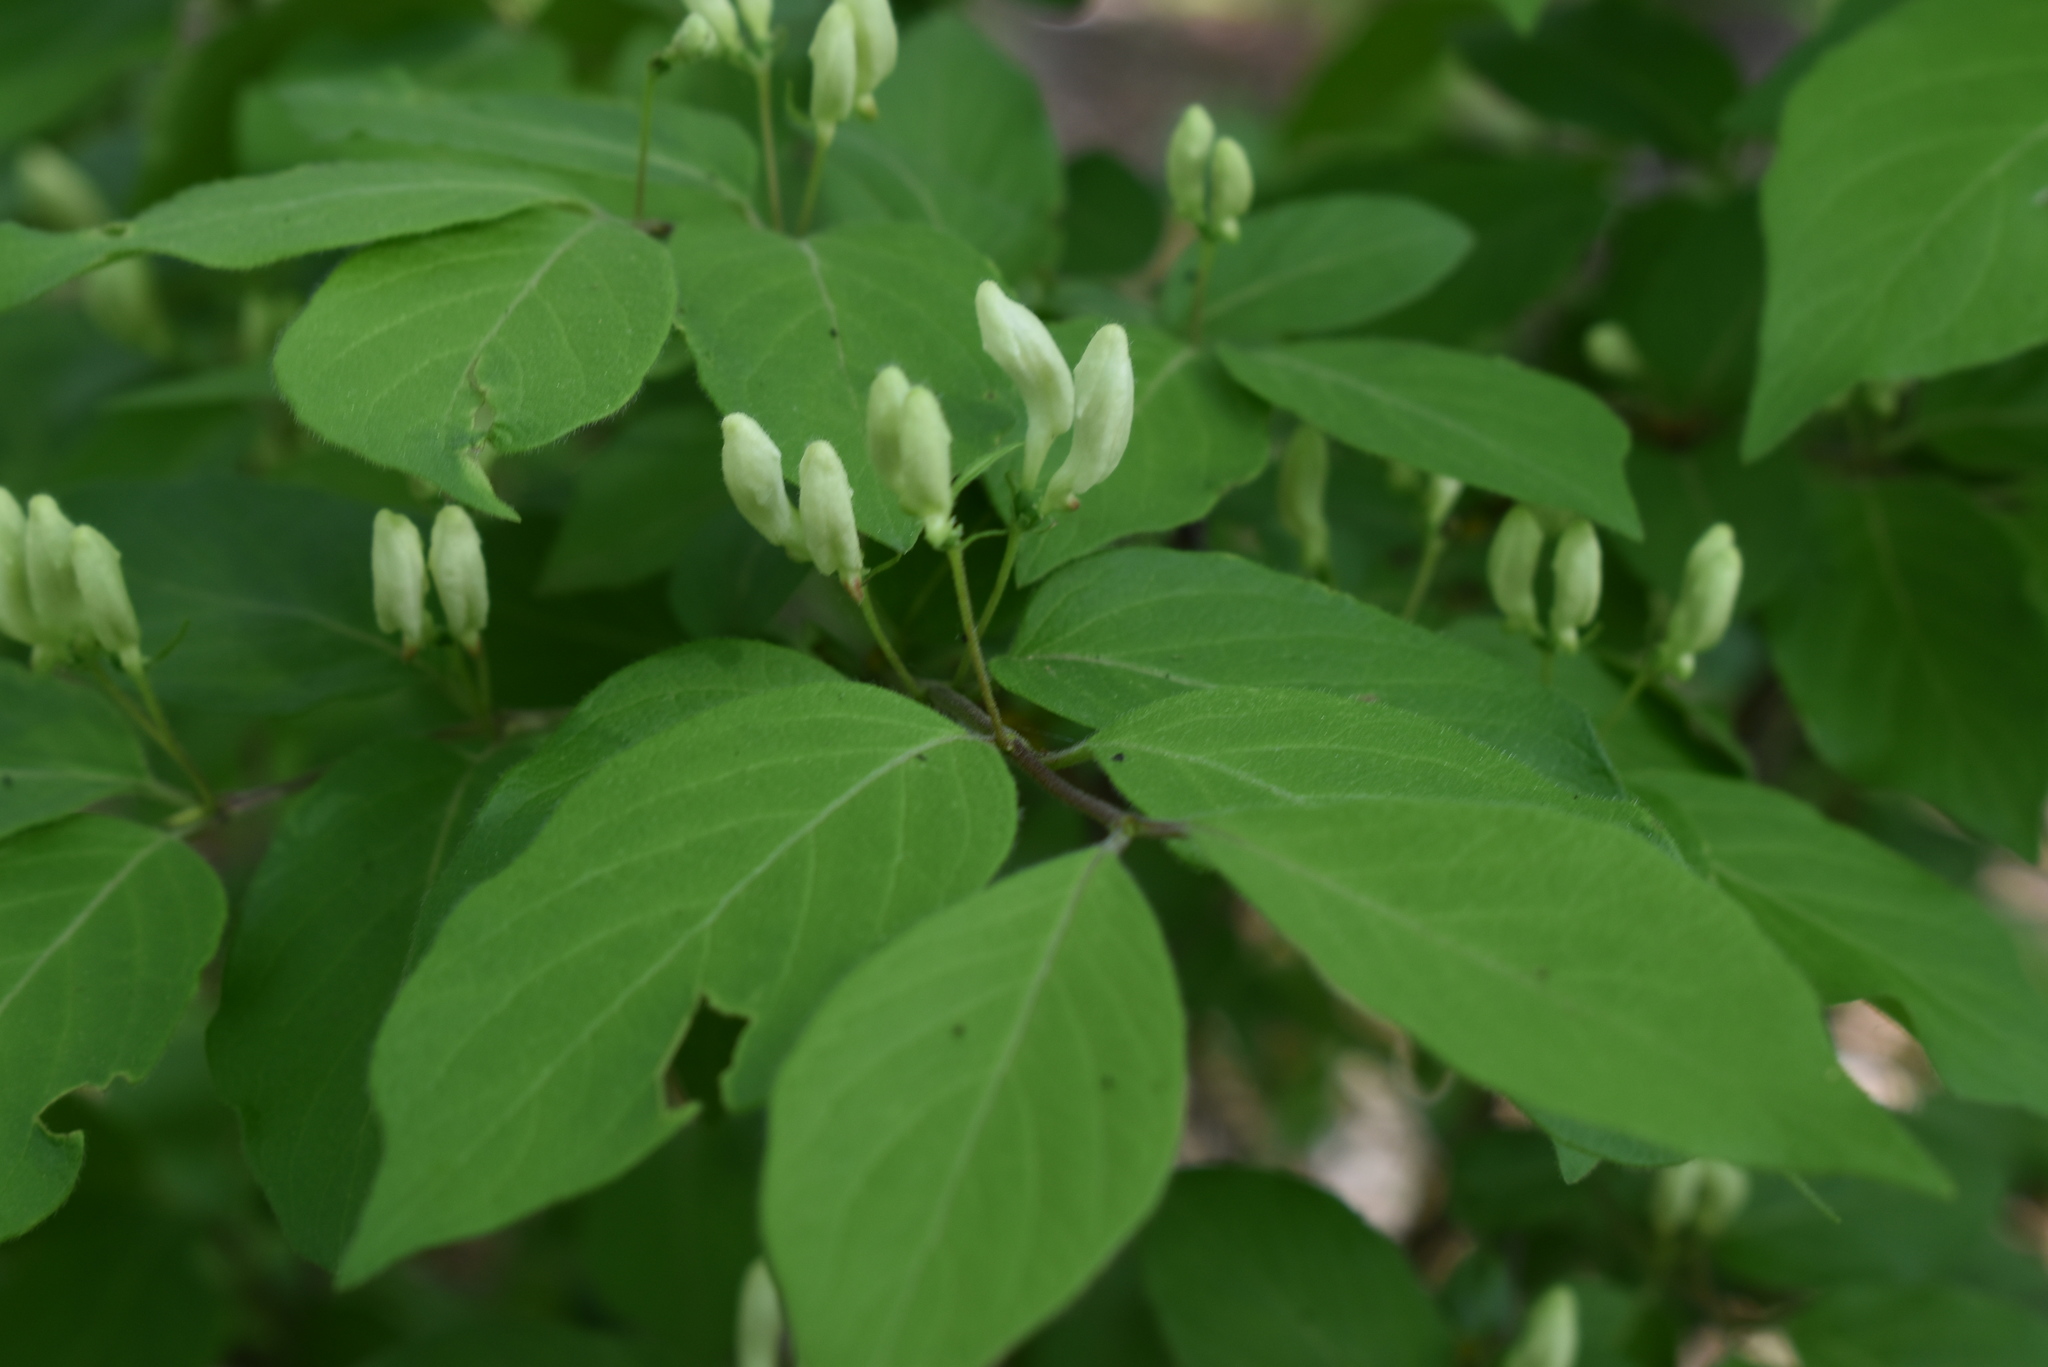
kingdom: Plantae
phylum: Tracheophyta
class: Magnoliopsida
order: Dipsacales
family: Caprifoliaceae
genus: Lonicera
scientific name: Lonicera ruprechtiana
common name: Manchurian honeysuckle
